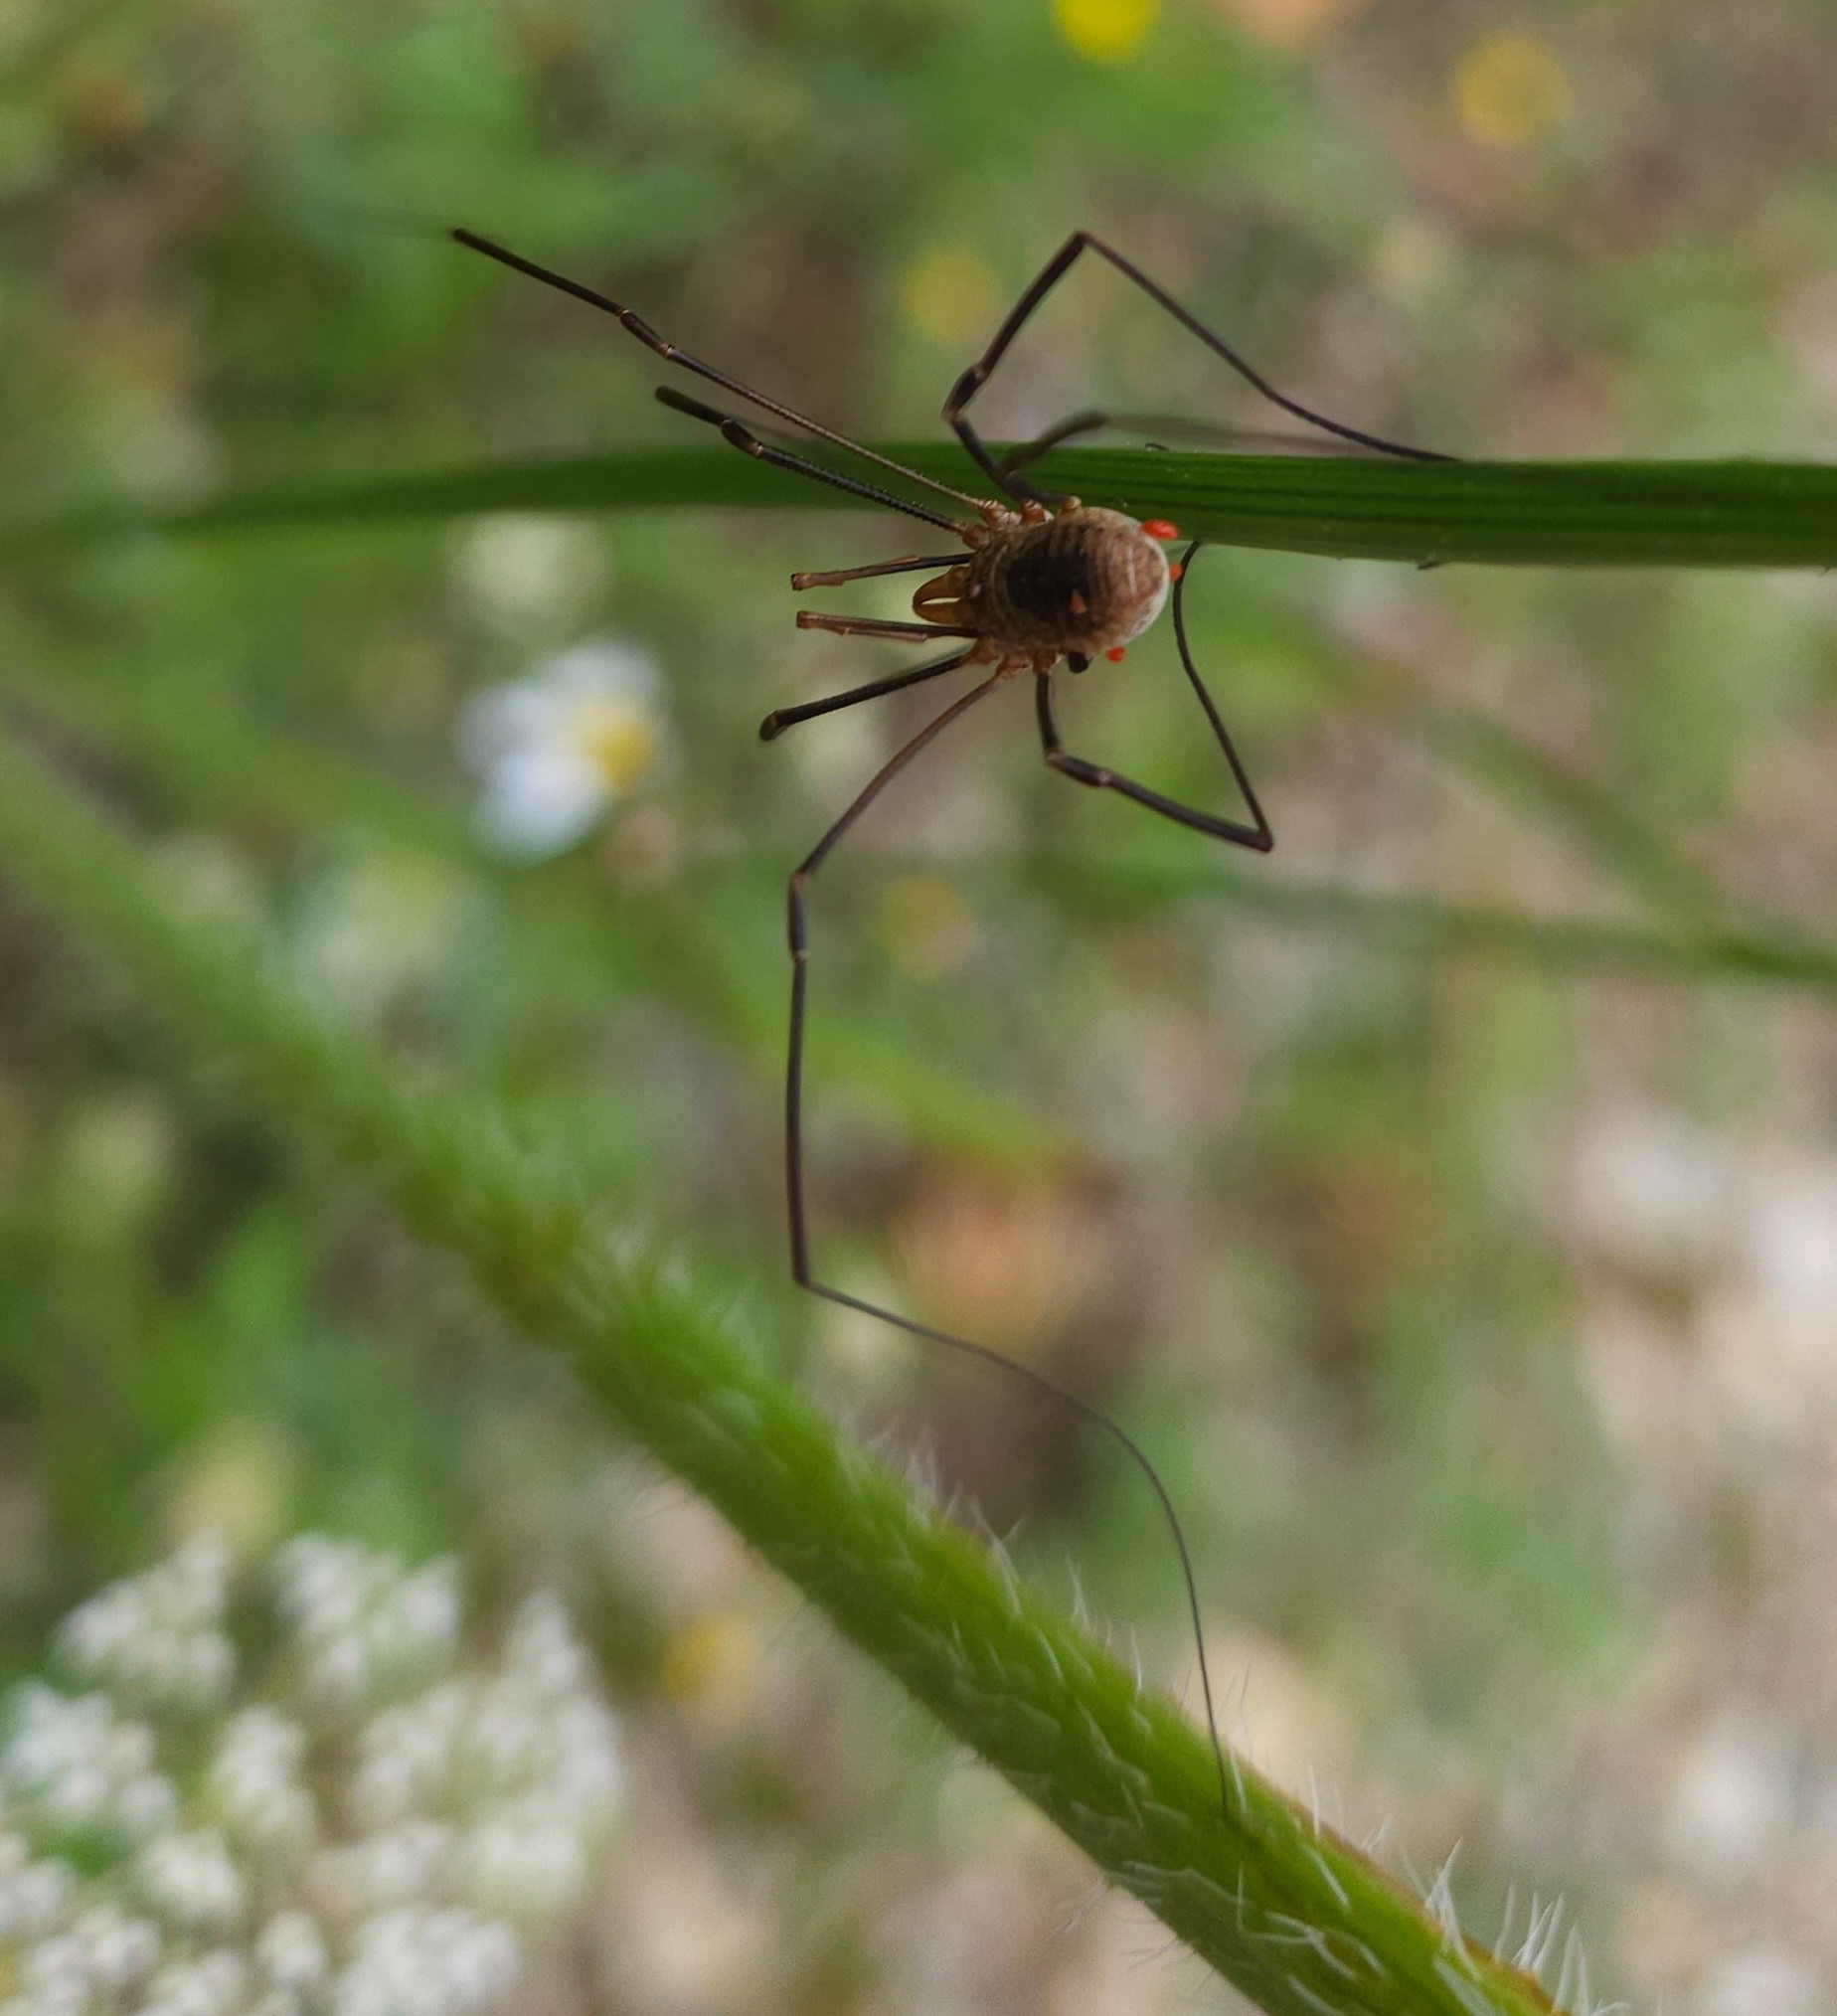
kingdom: Animalia
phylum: Arthropoda
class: Arachnida
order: Opiliones
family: Phalangiidae
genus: Phalangium
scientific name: Phalangium opilio
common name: Daddy longleg
